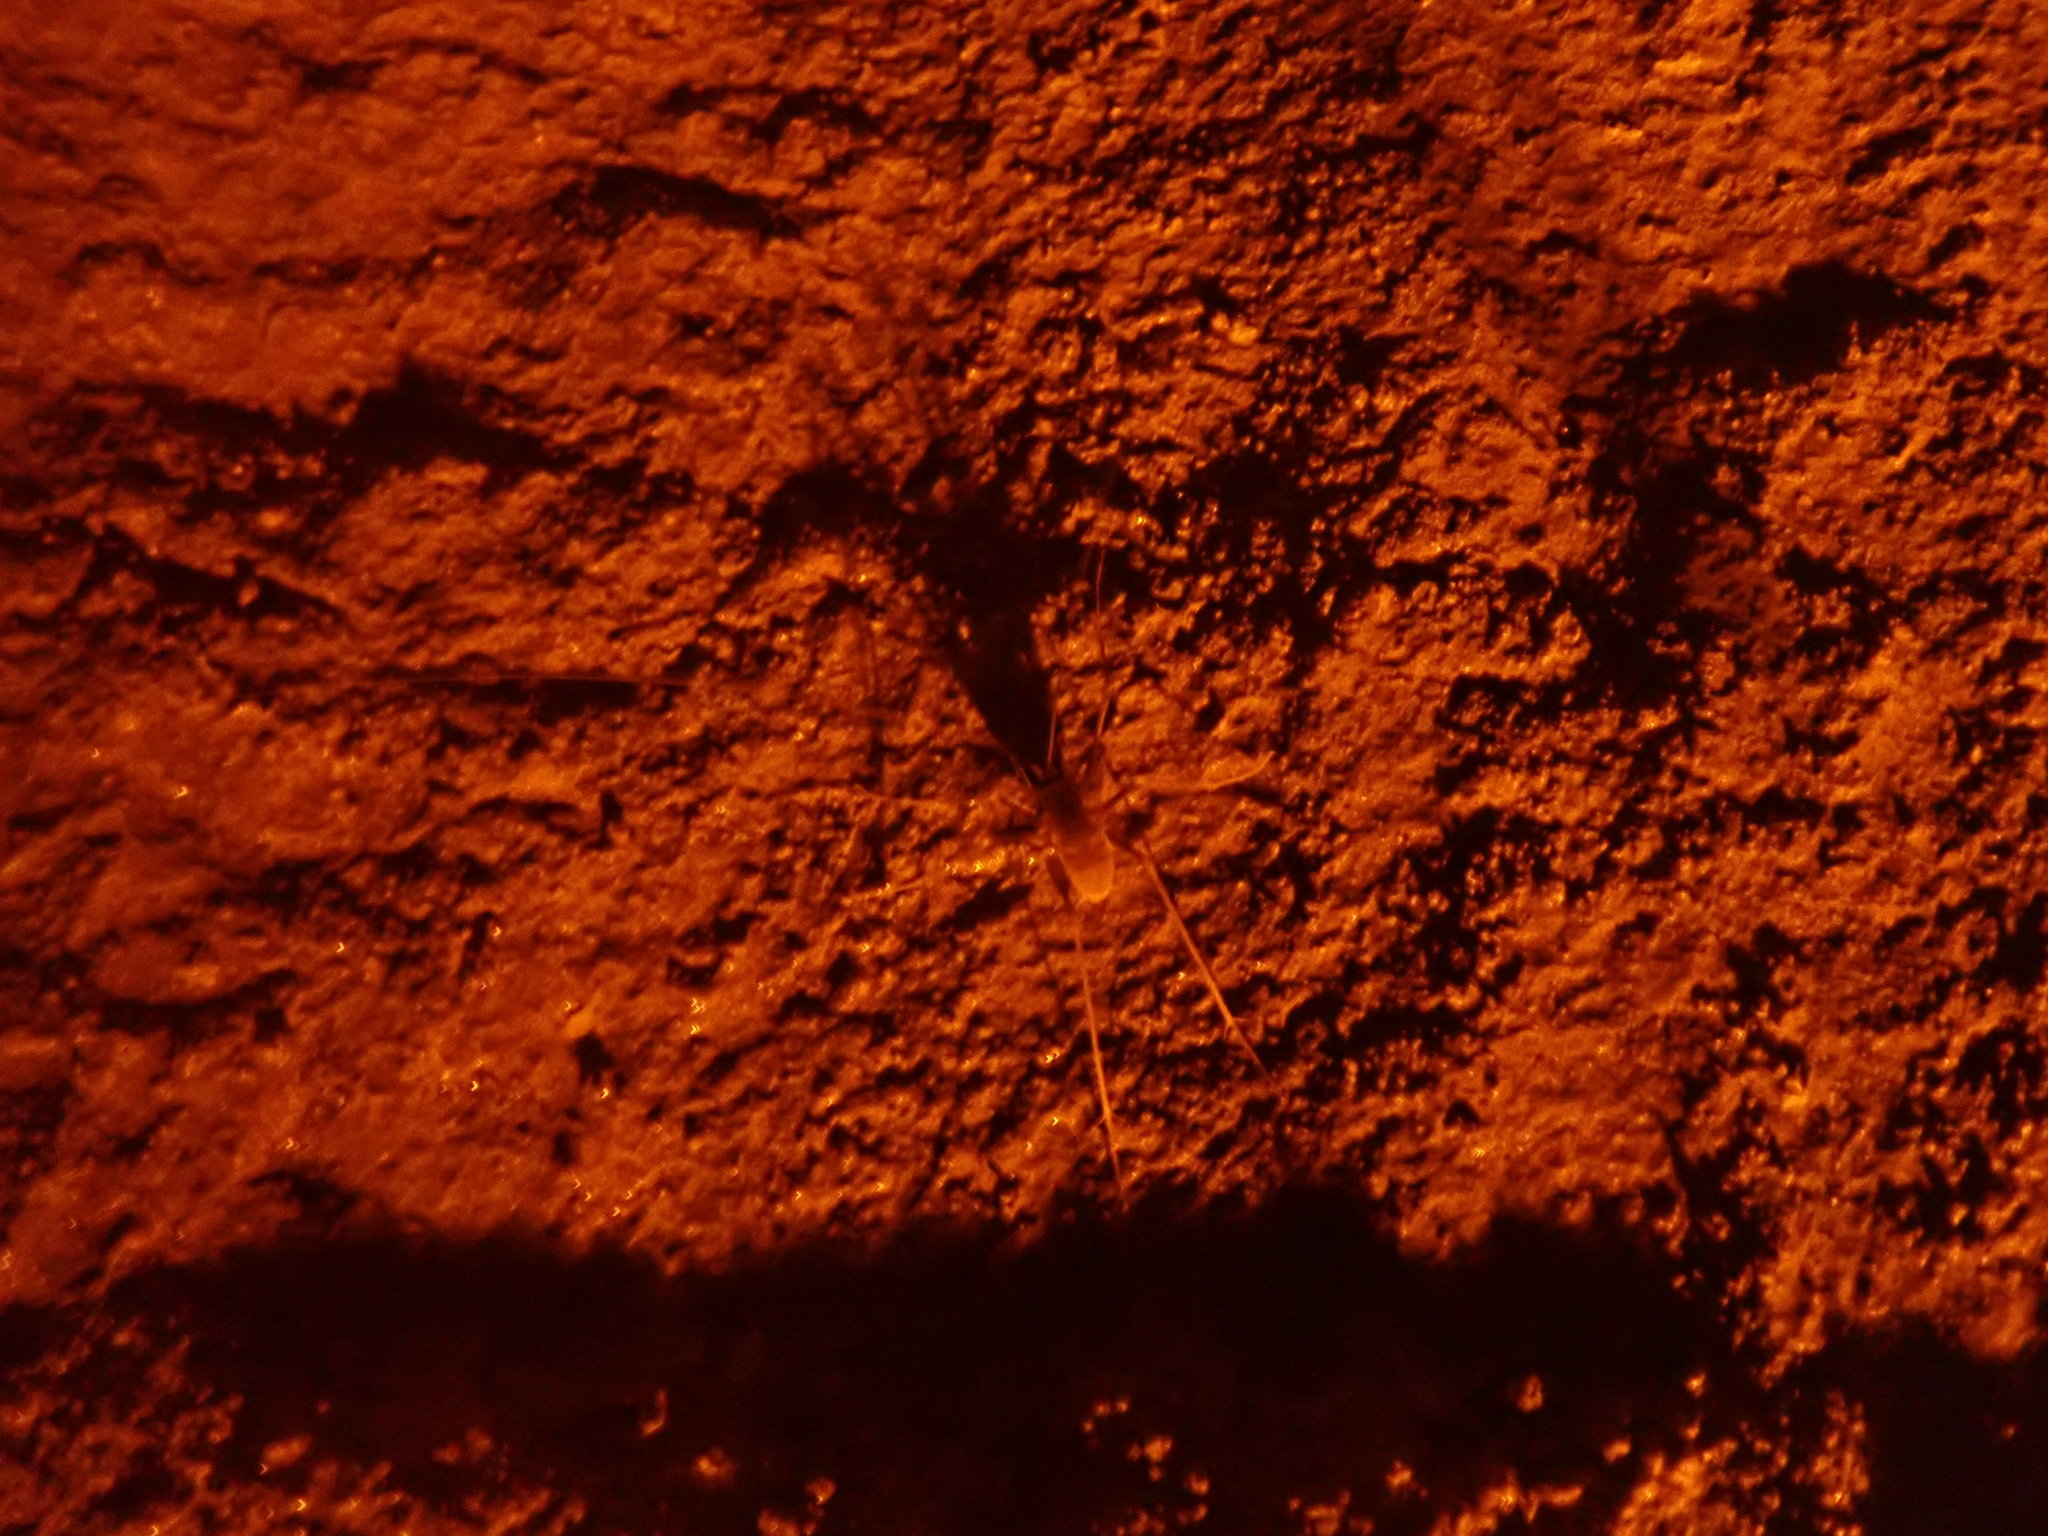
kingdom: Animalia
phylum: Arthropoda
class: Insecta
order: Orthoptera
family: Rhaphidophoridae
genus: Hadenoecus
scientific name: Hadenoecus subterraneus
